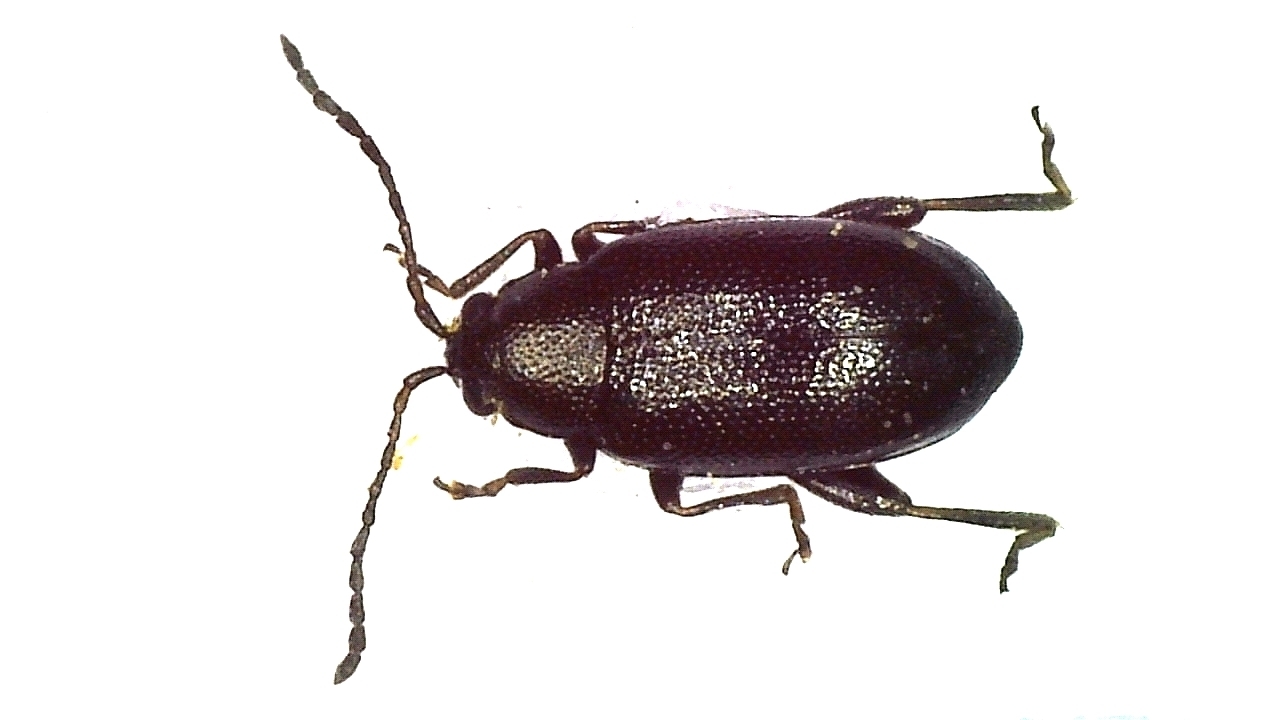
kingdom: Animalia
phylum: Arthropoda
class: Insecta
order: Coleoptera
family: Chrysomelidae
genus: Phyllotreta
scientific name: Phyllotreta cruciferae
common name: Crucifer flea beetle
